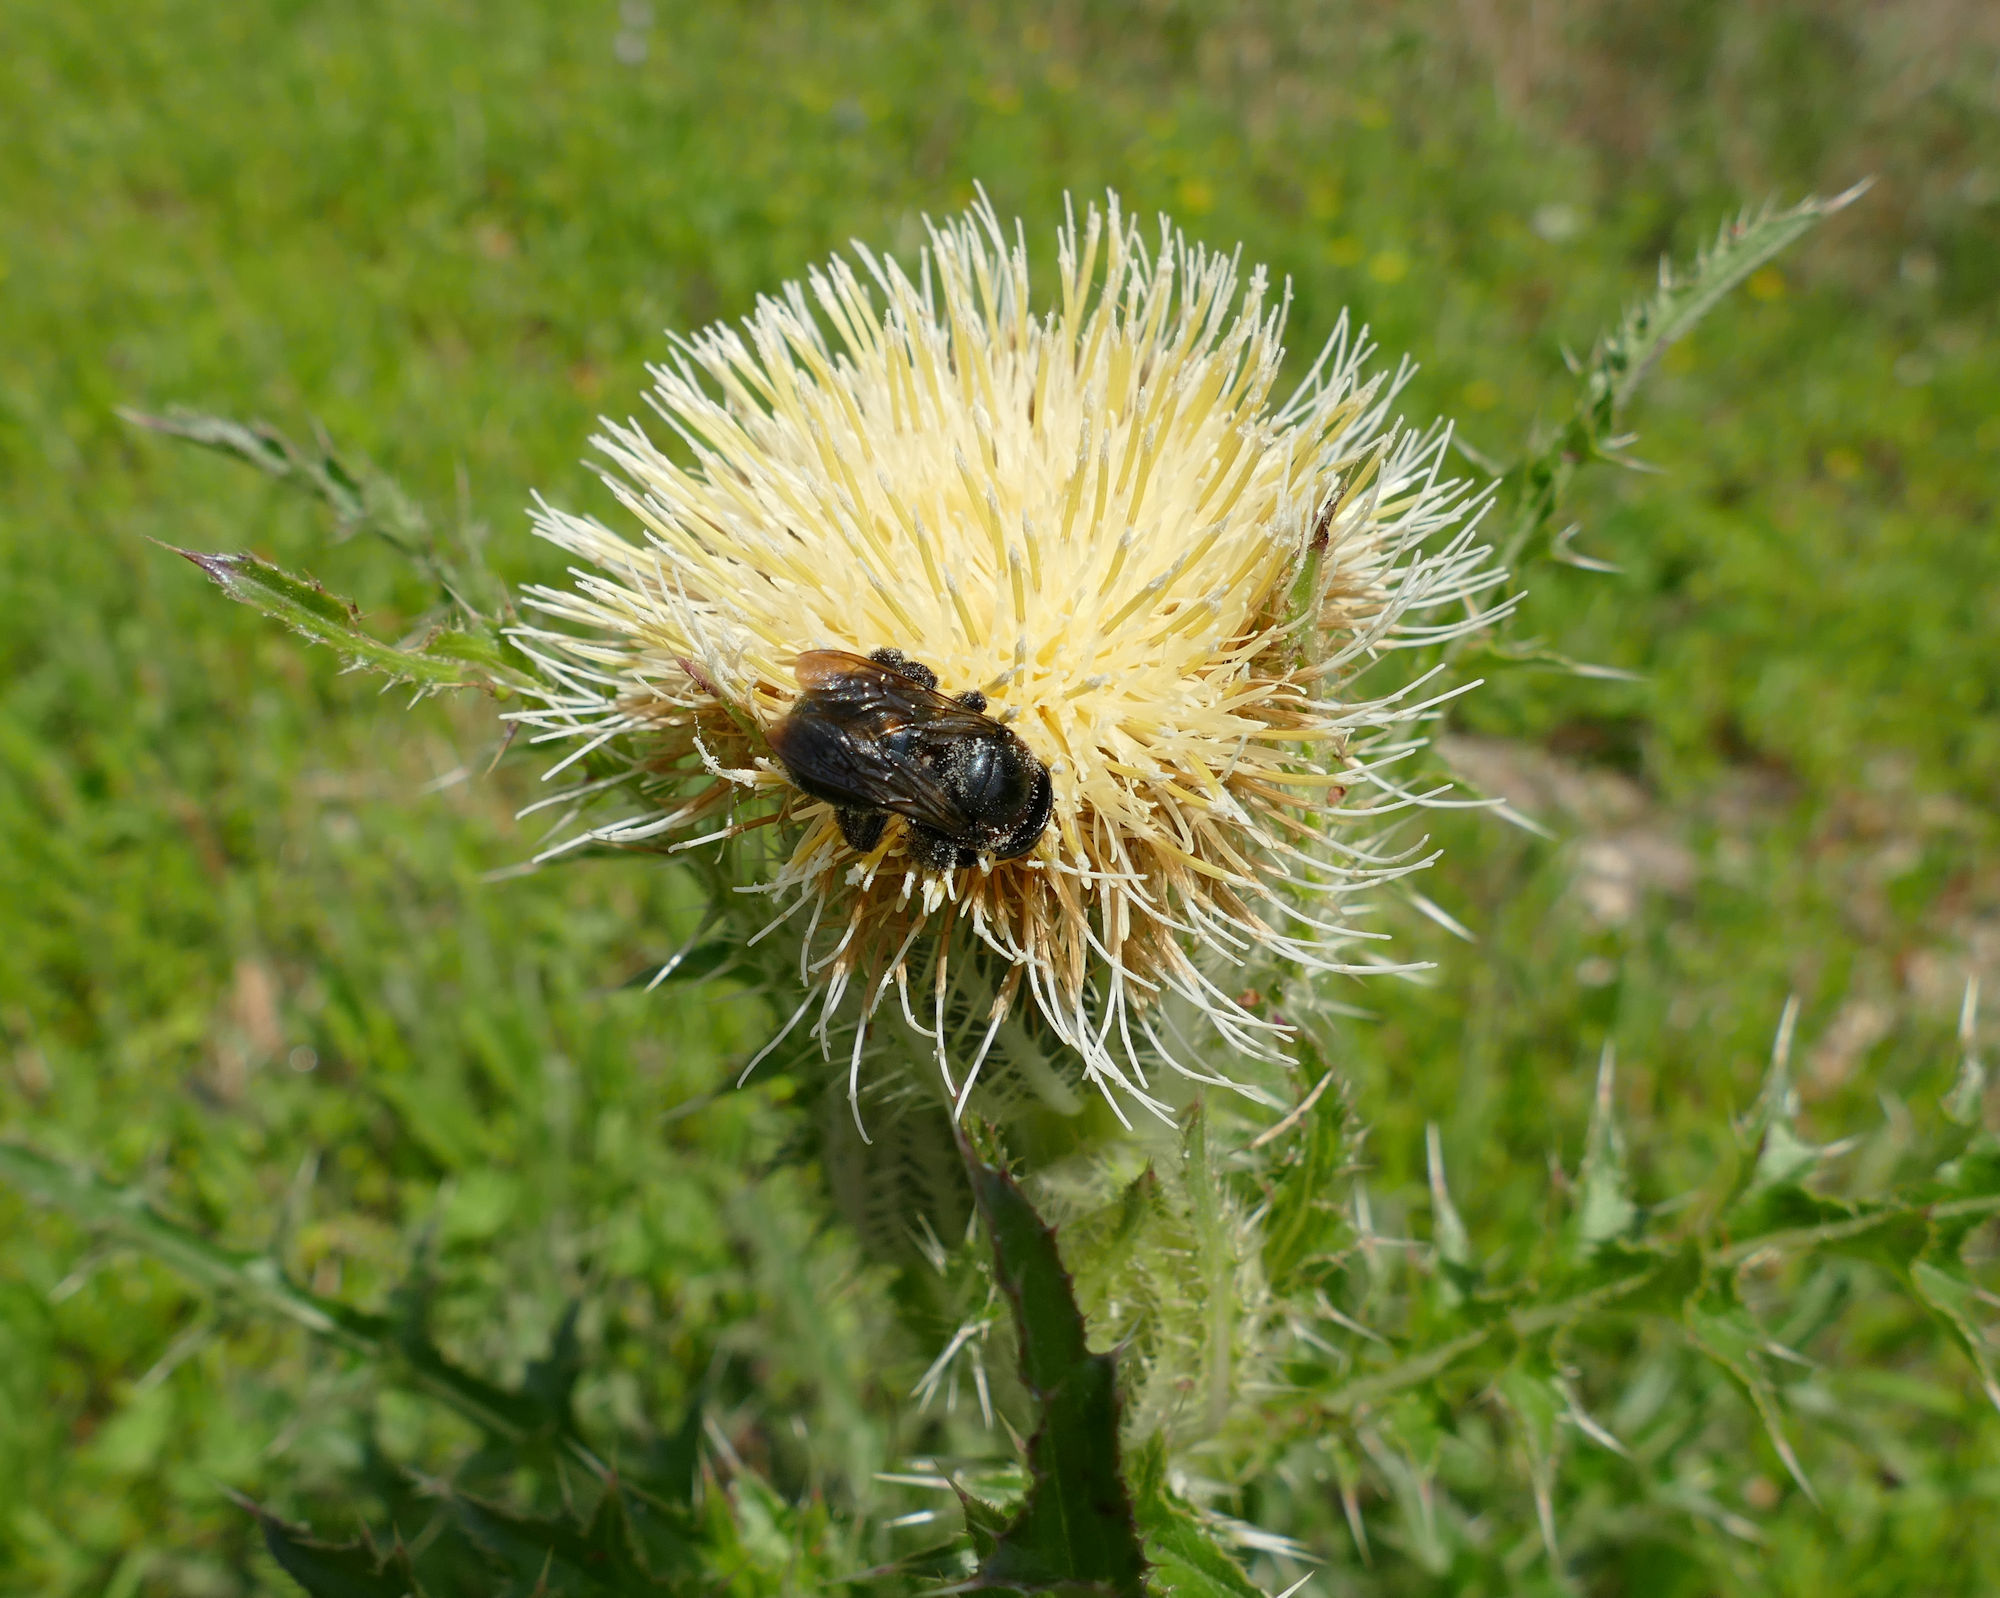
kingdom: Animalia
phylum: Arthropoda
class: Insecta
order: Hymenoptera
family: Apidae
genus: Xylocopa
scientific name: Xylocopa micans
